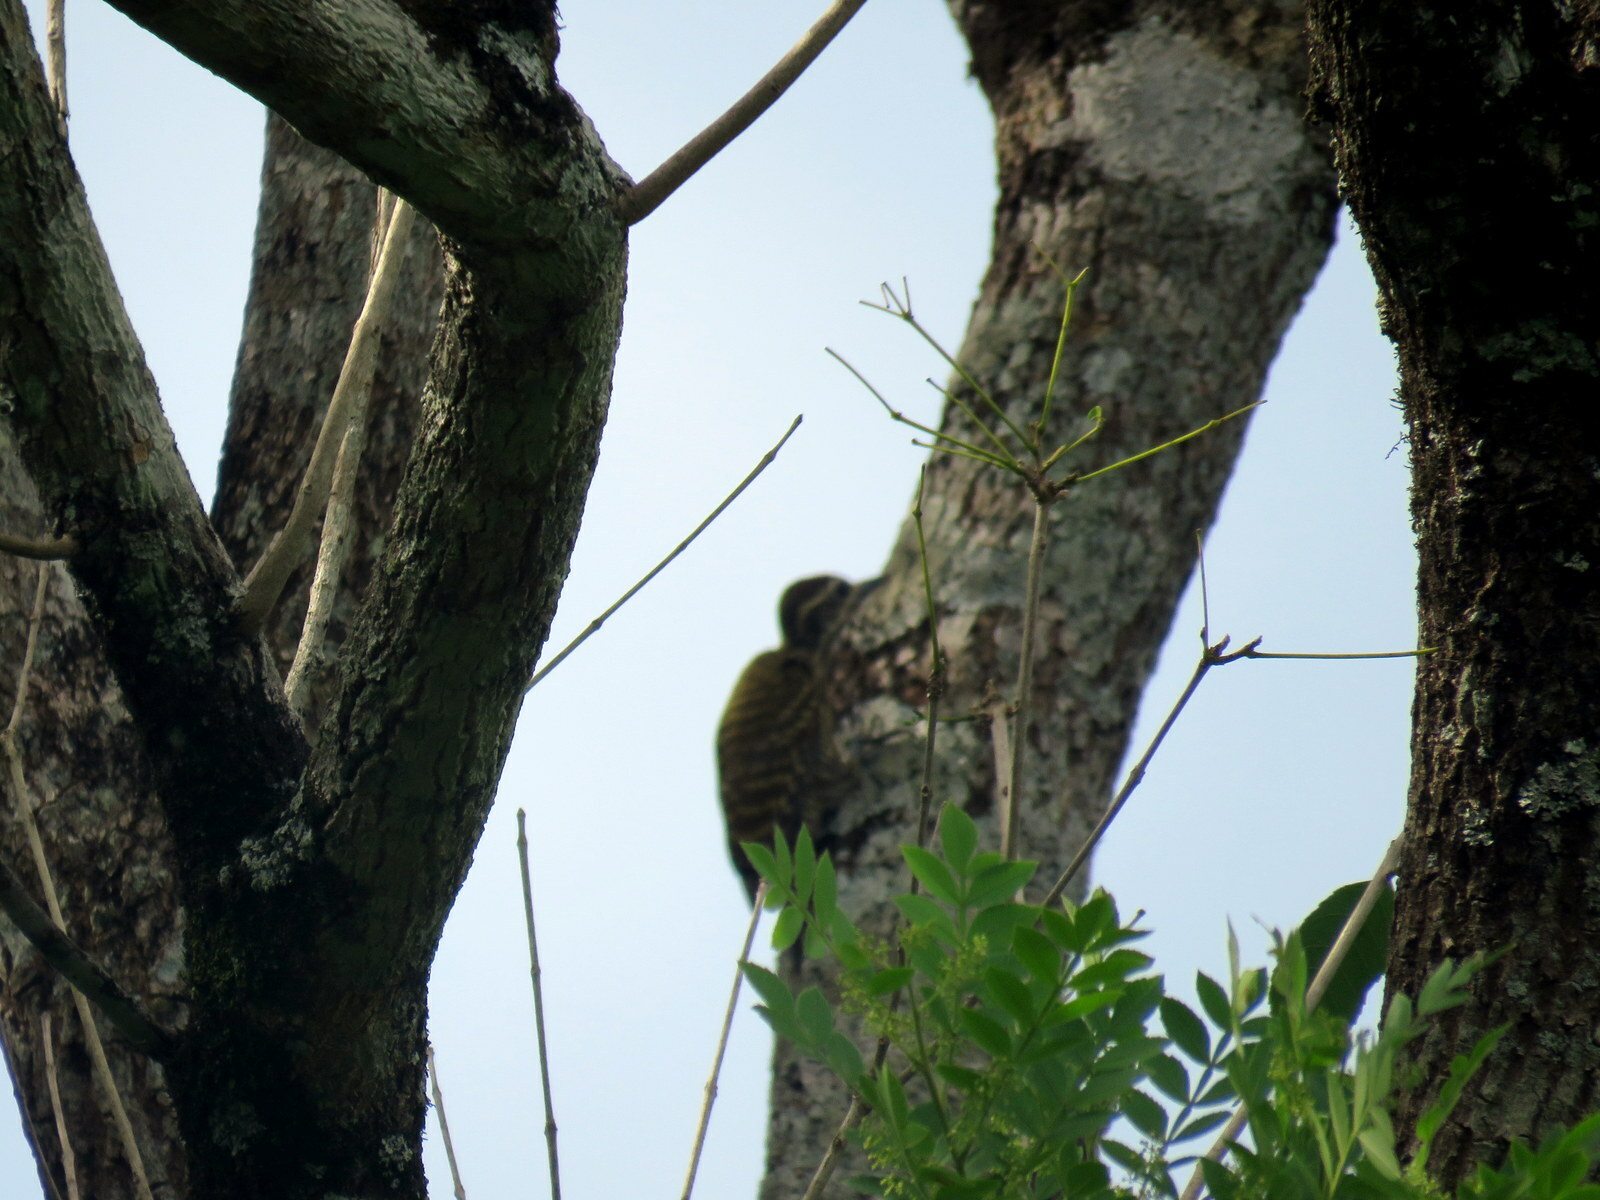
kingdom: Animalia
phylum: Chordata
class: Aves
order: Piciformes
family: Picidae
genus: Veniliornis
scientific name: Veniliornis spilogaster
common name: White-spotted woodpecker
